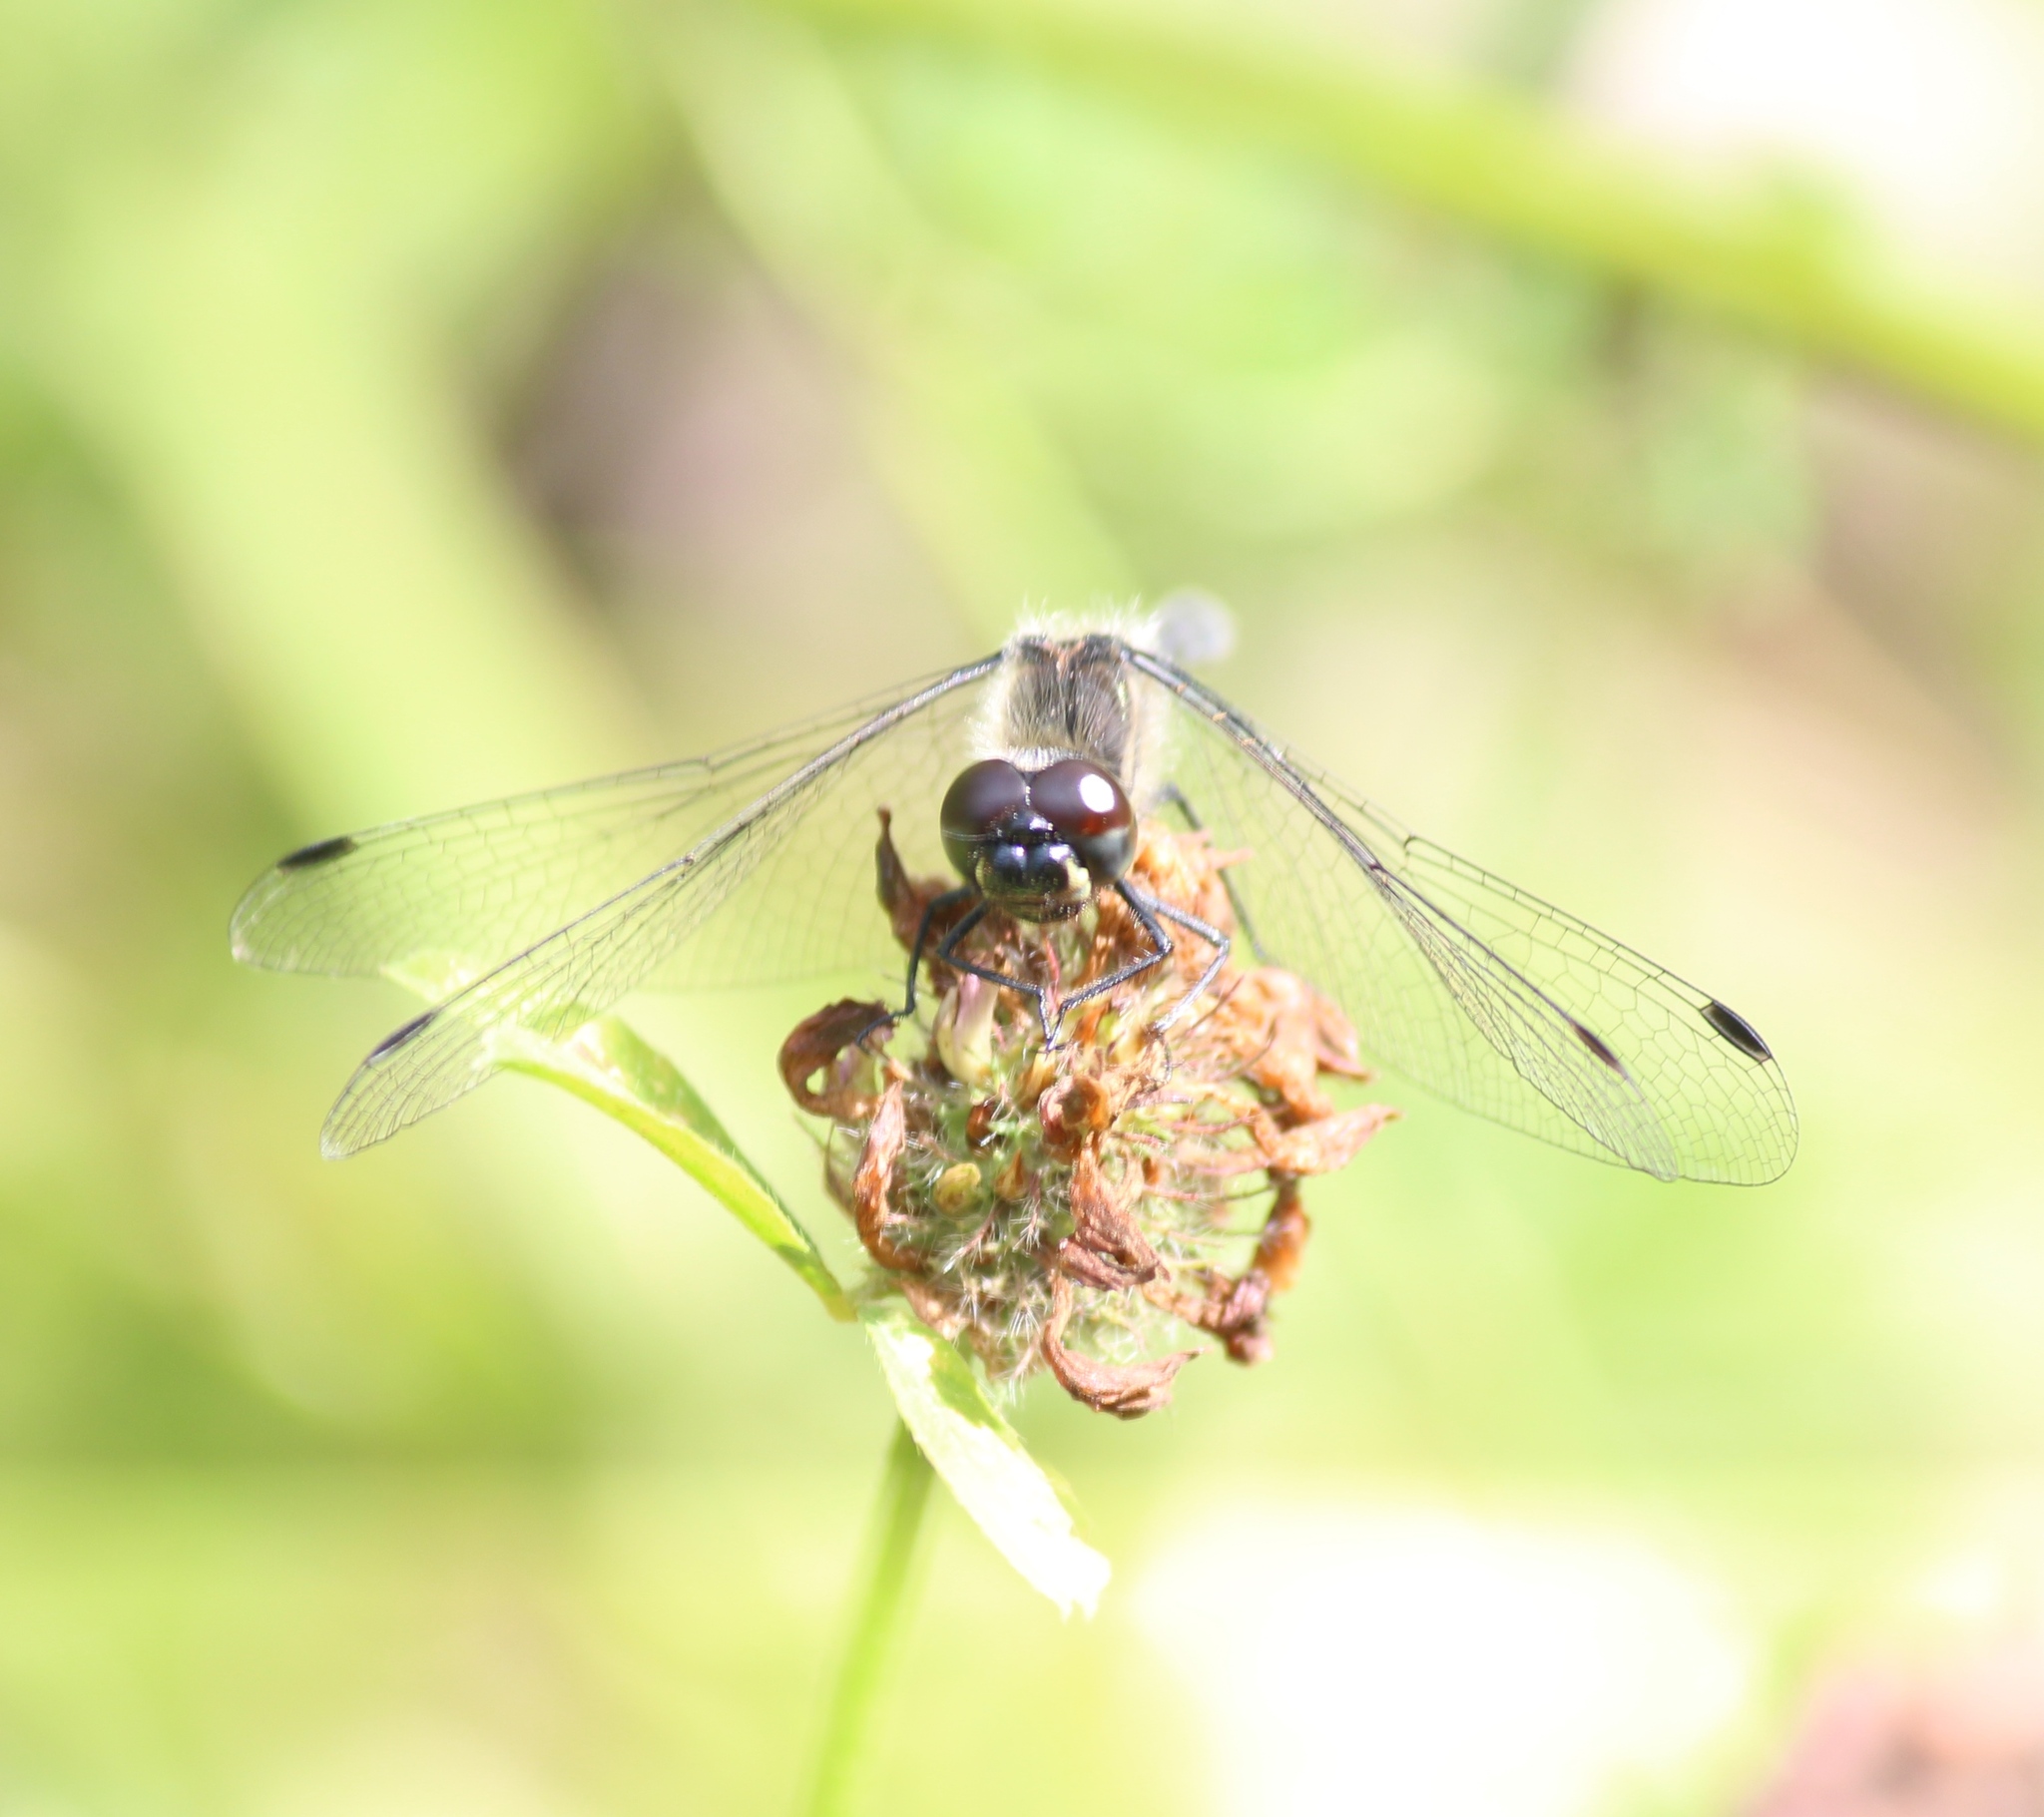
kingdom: Animalia
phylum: Arthropoda
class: Insecta
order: Odonata
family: Libellulidae
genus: Sympetrum
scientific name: Sympetrum danae
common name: Black darter
